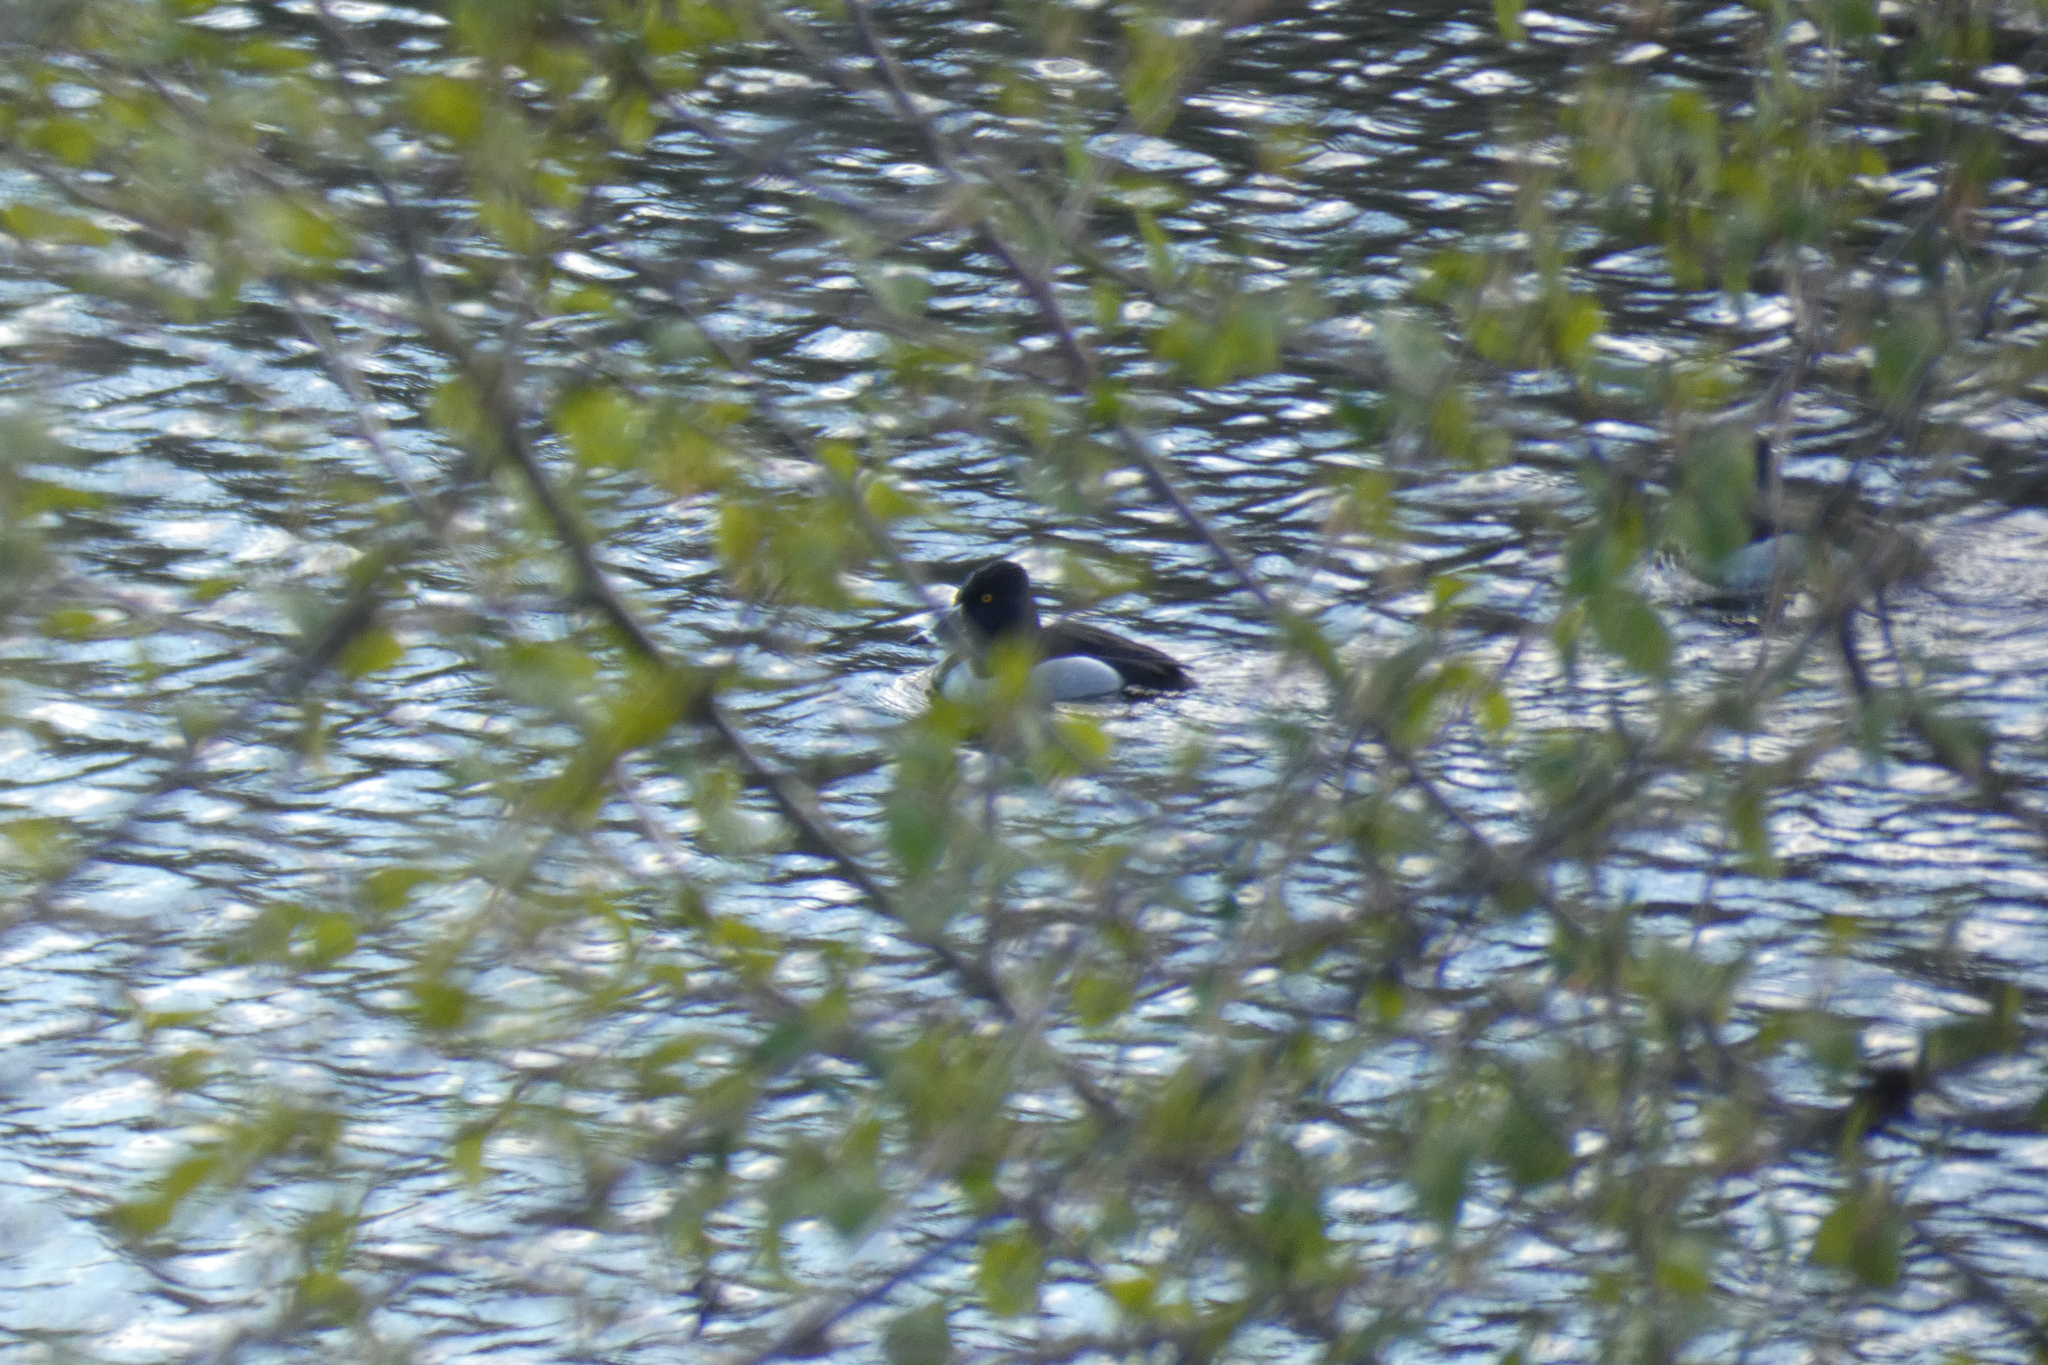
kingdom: Animalia
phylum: Chordata
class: Aves
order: Anseriformes
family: Anatidae
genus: Aythya
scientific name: Aythya collaris
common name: Ring-necked duck
